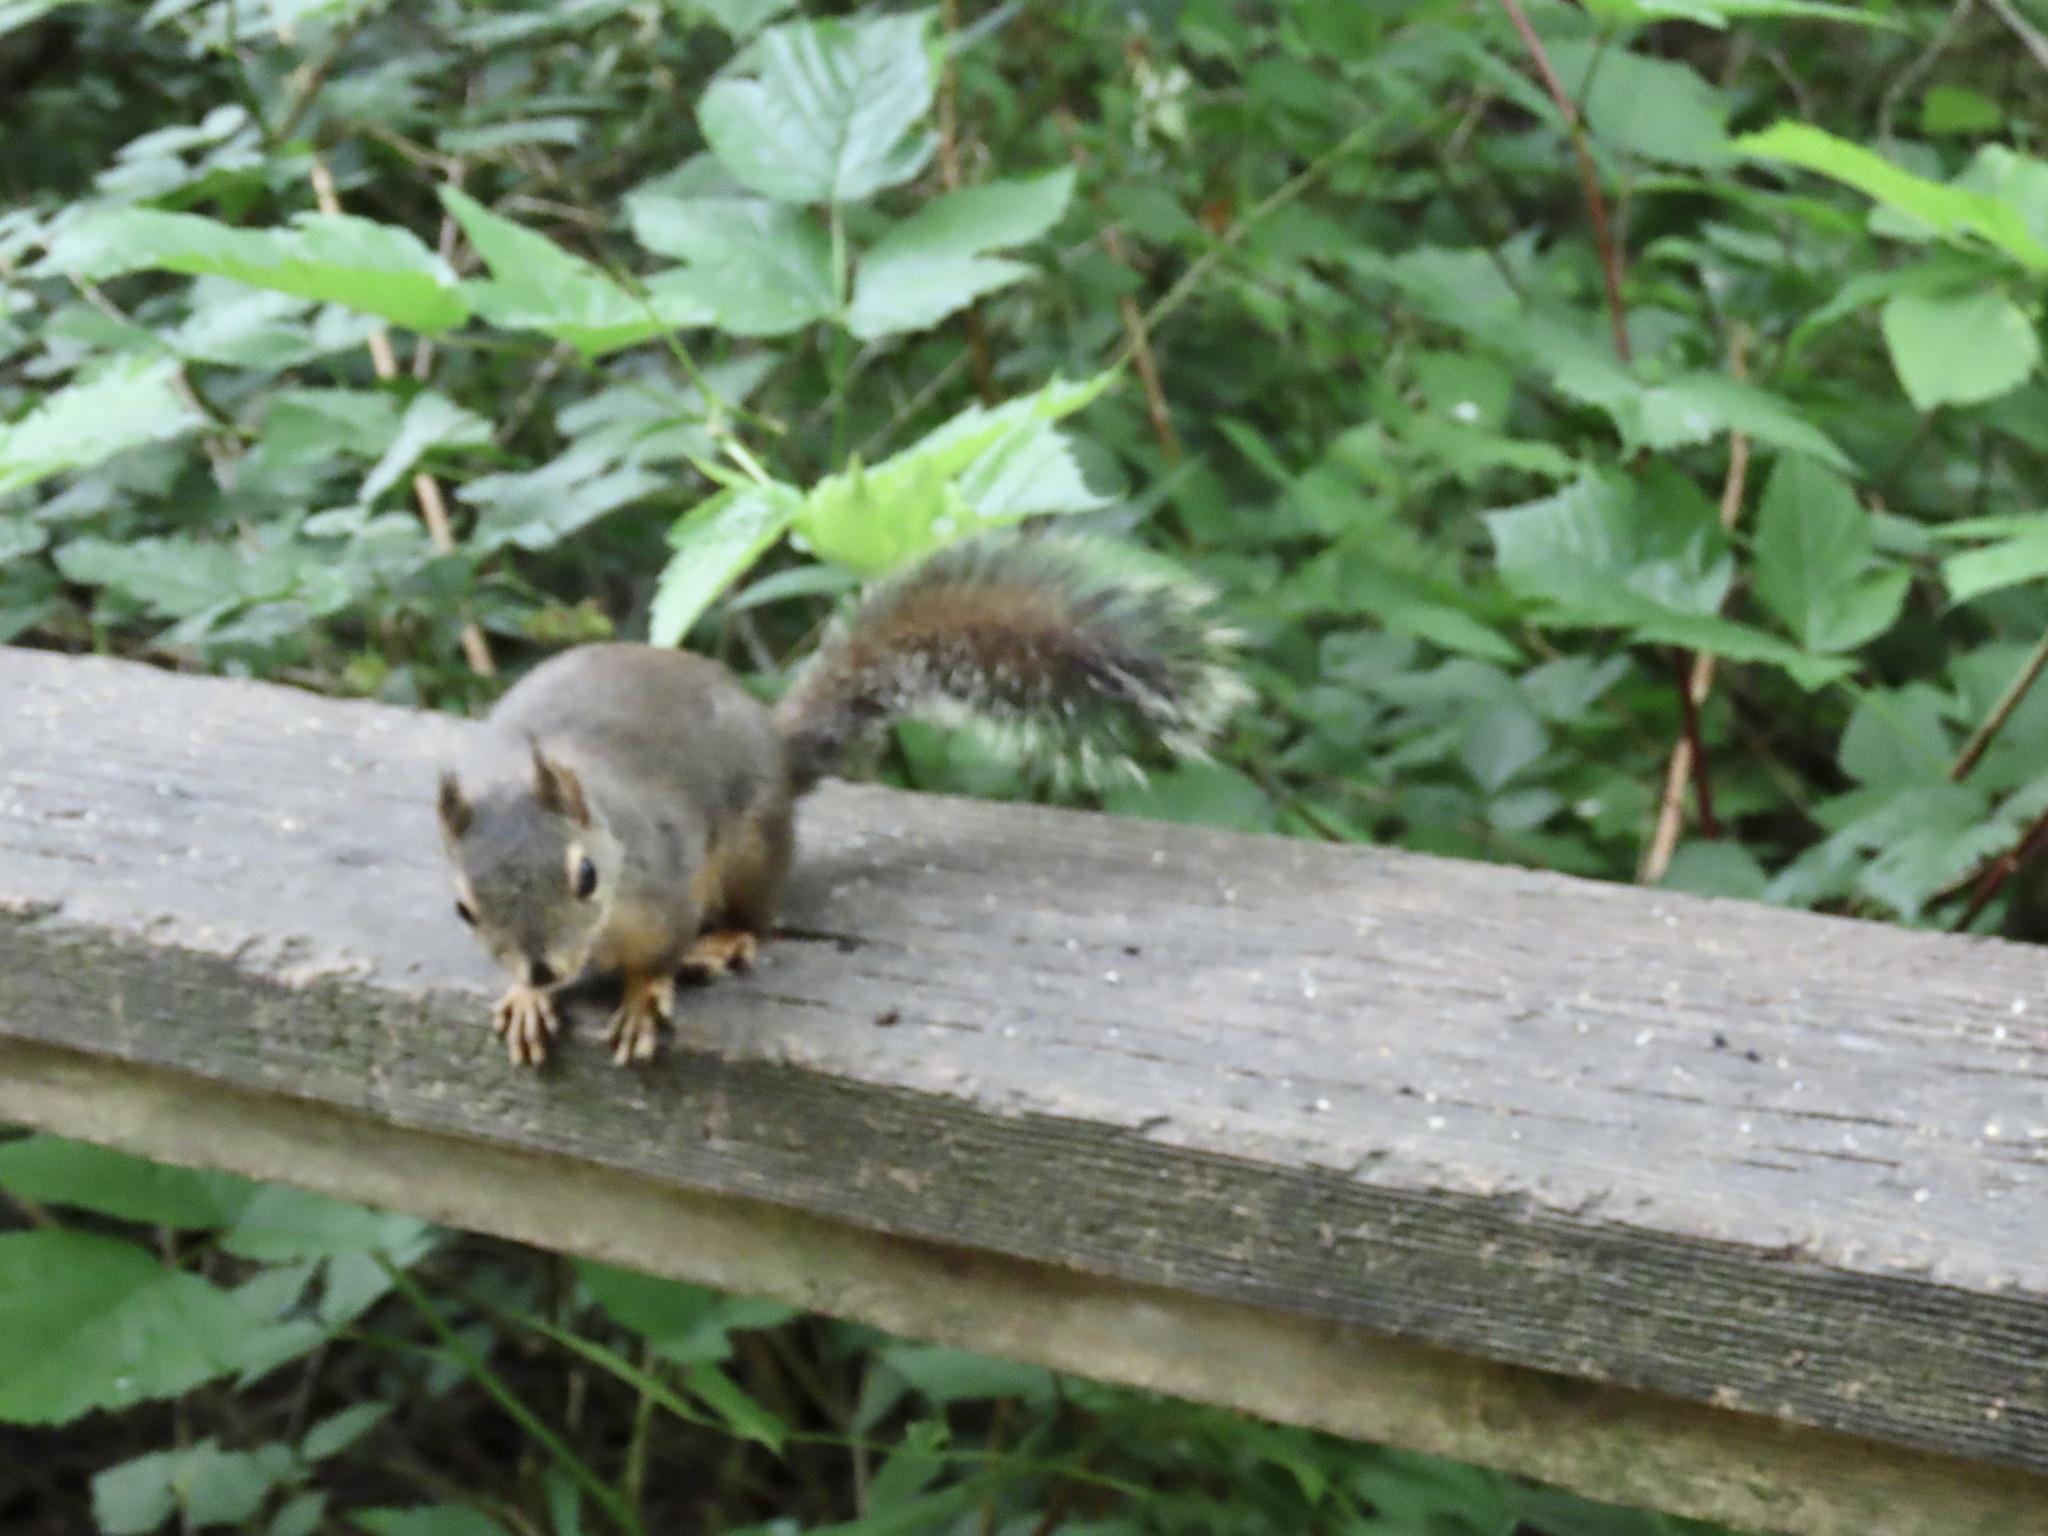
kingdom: Animalia
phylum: Chordata
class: Mammalia
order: Rodentia
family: Sciuridae
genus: Tamiasciurus
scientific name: Tamiasciurus douglasii
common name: Douglas's squirrel
